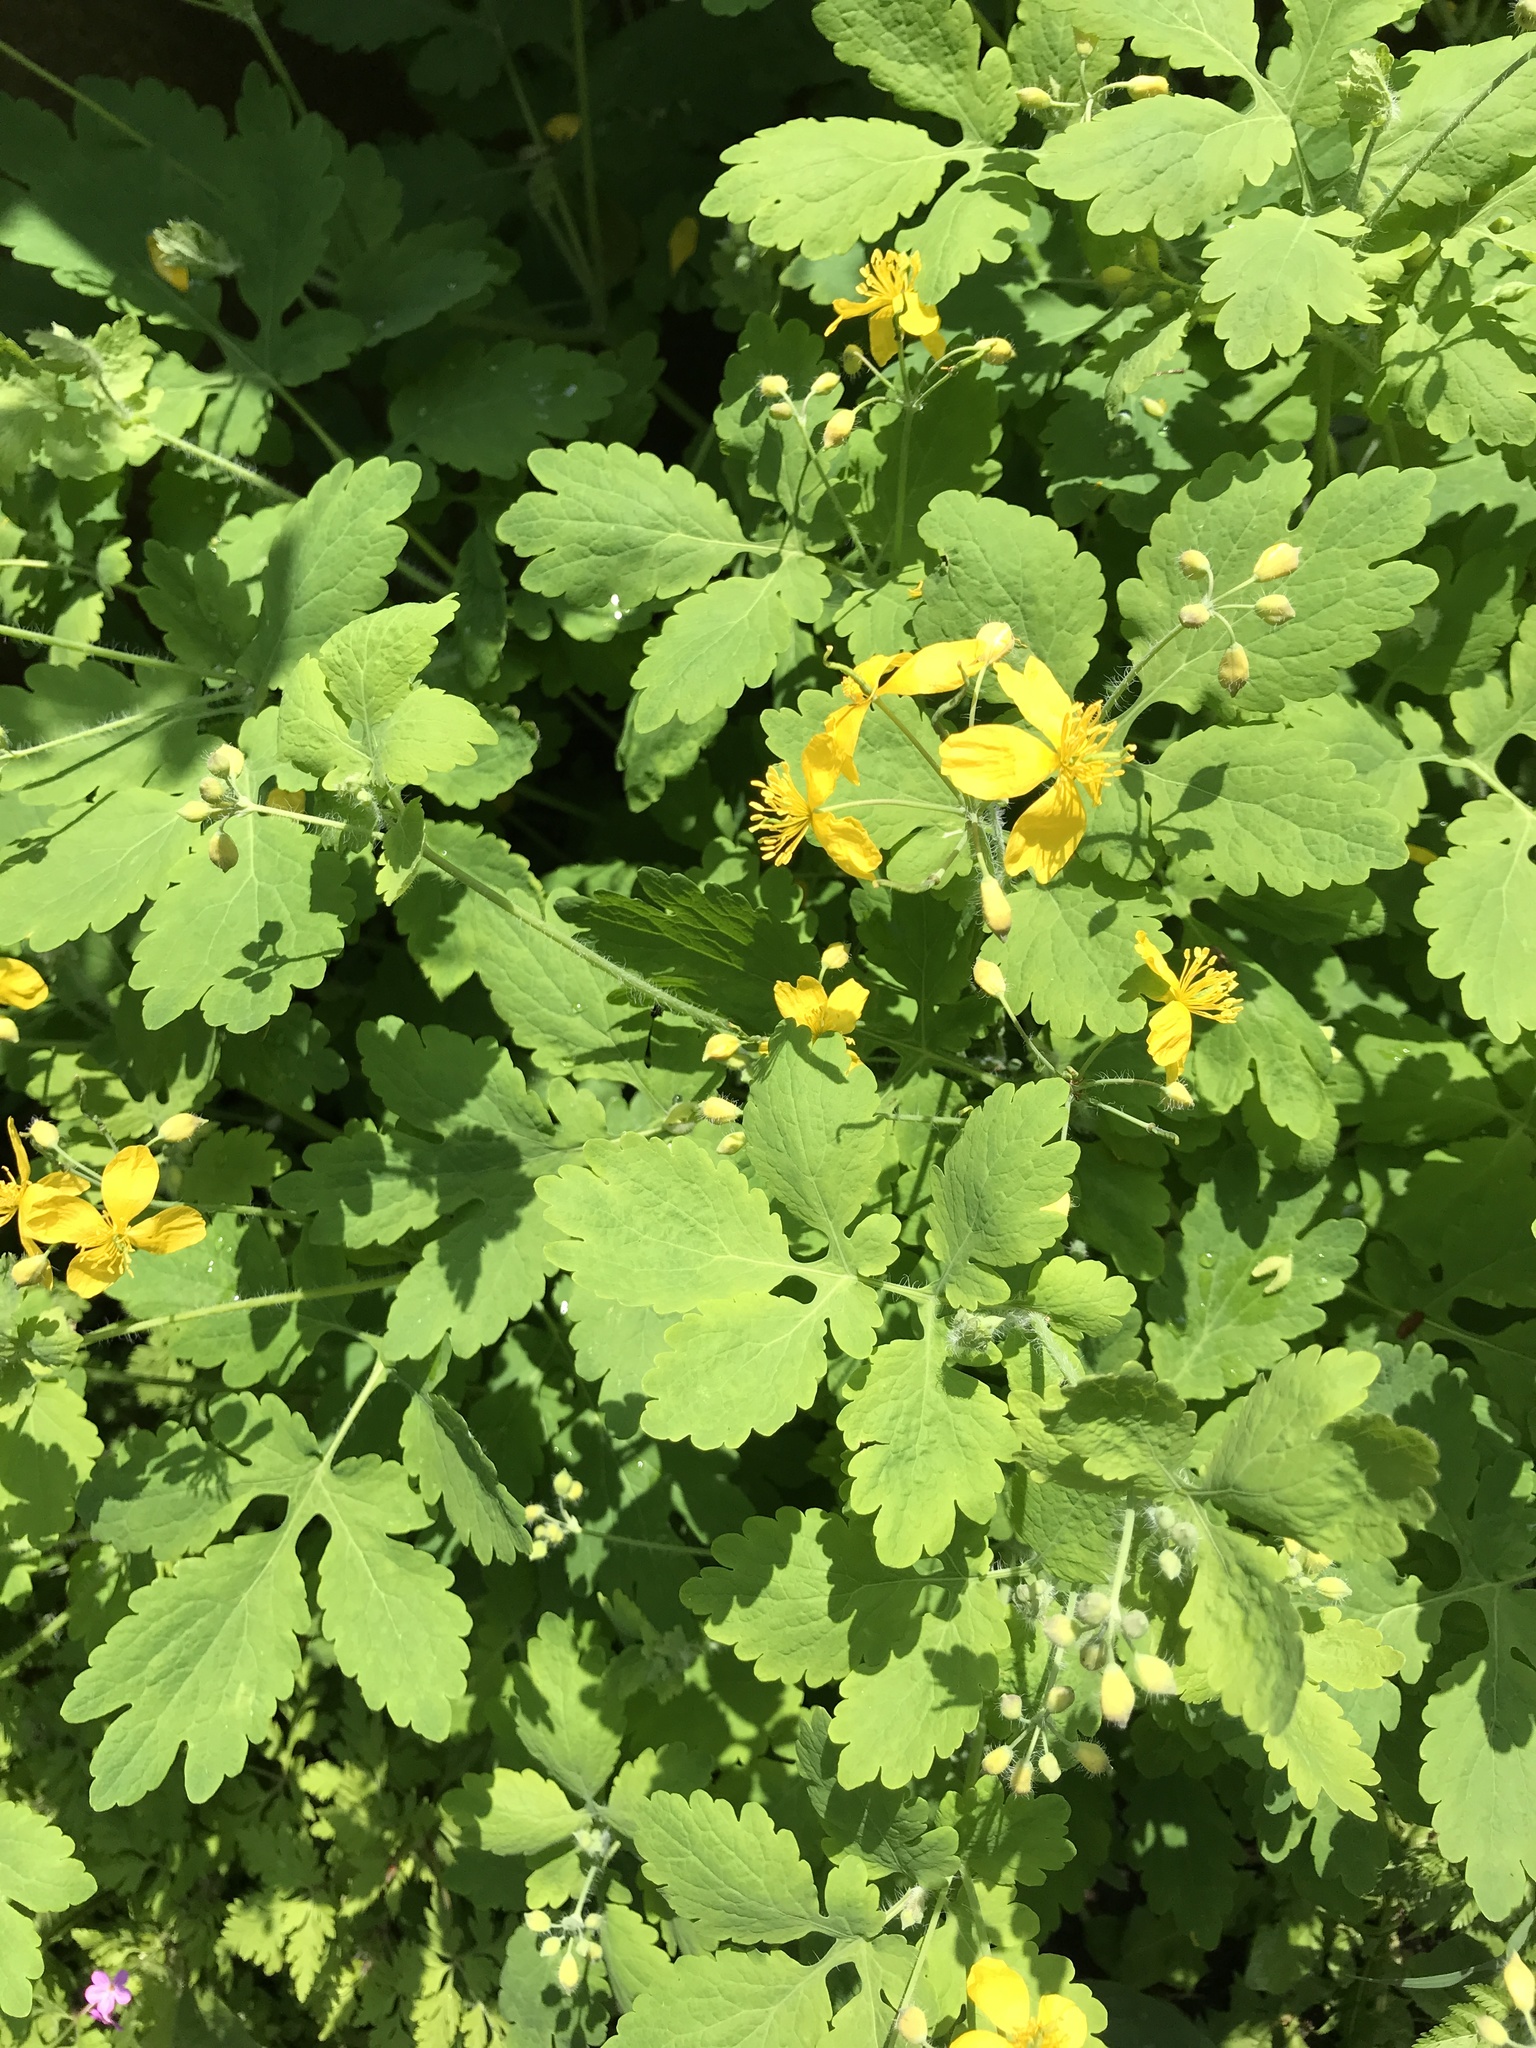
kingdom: Plantae
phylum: Tracheophyta
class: Magnoliopsida
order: Ranunculales
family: Papaveraceae
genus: Chelidonium
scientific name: Chelidonium majus
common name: Greater celandine
